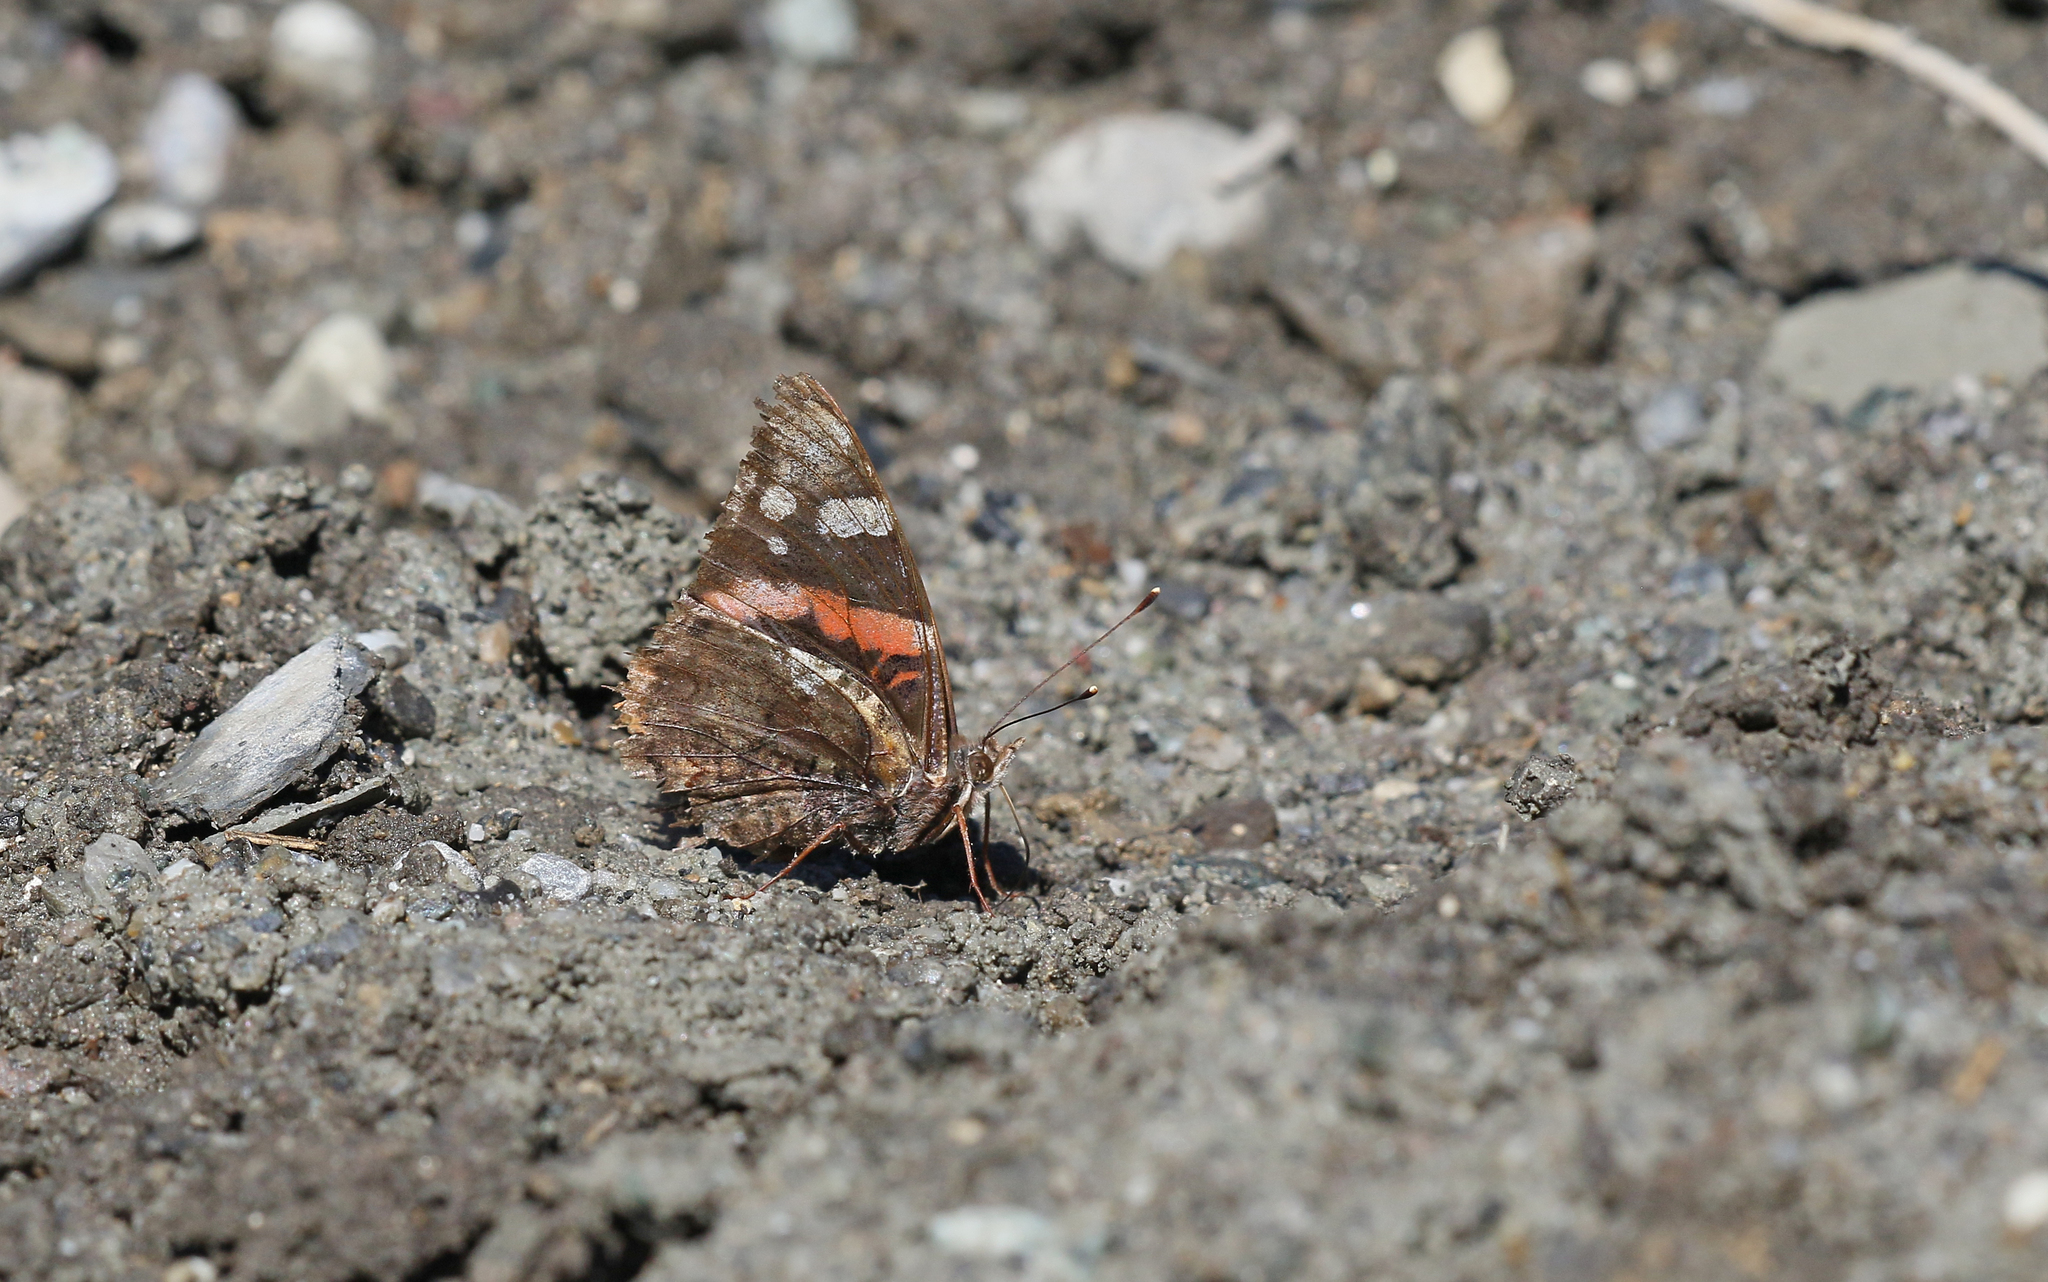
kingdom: Animalia
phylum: Arthropoda
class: Insecta
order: Lepidoptera
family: Nymphalidae
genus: Vanessa
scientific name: Vanessa atalanta
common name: Red admiral
